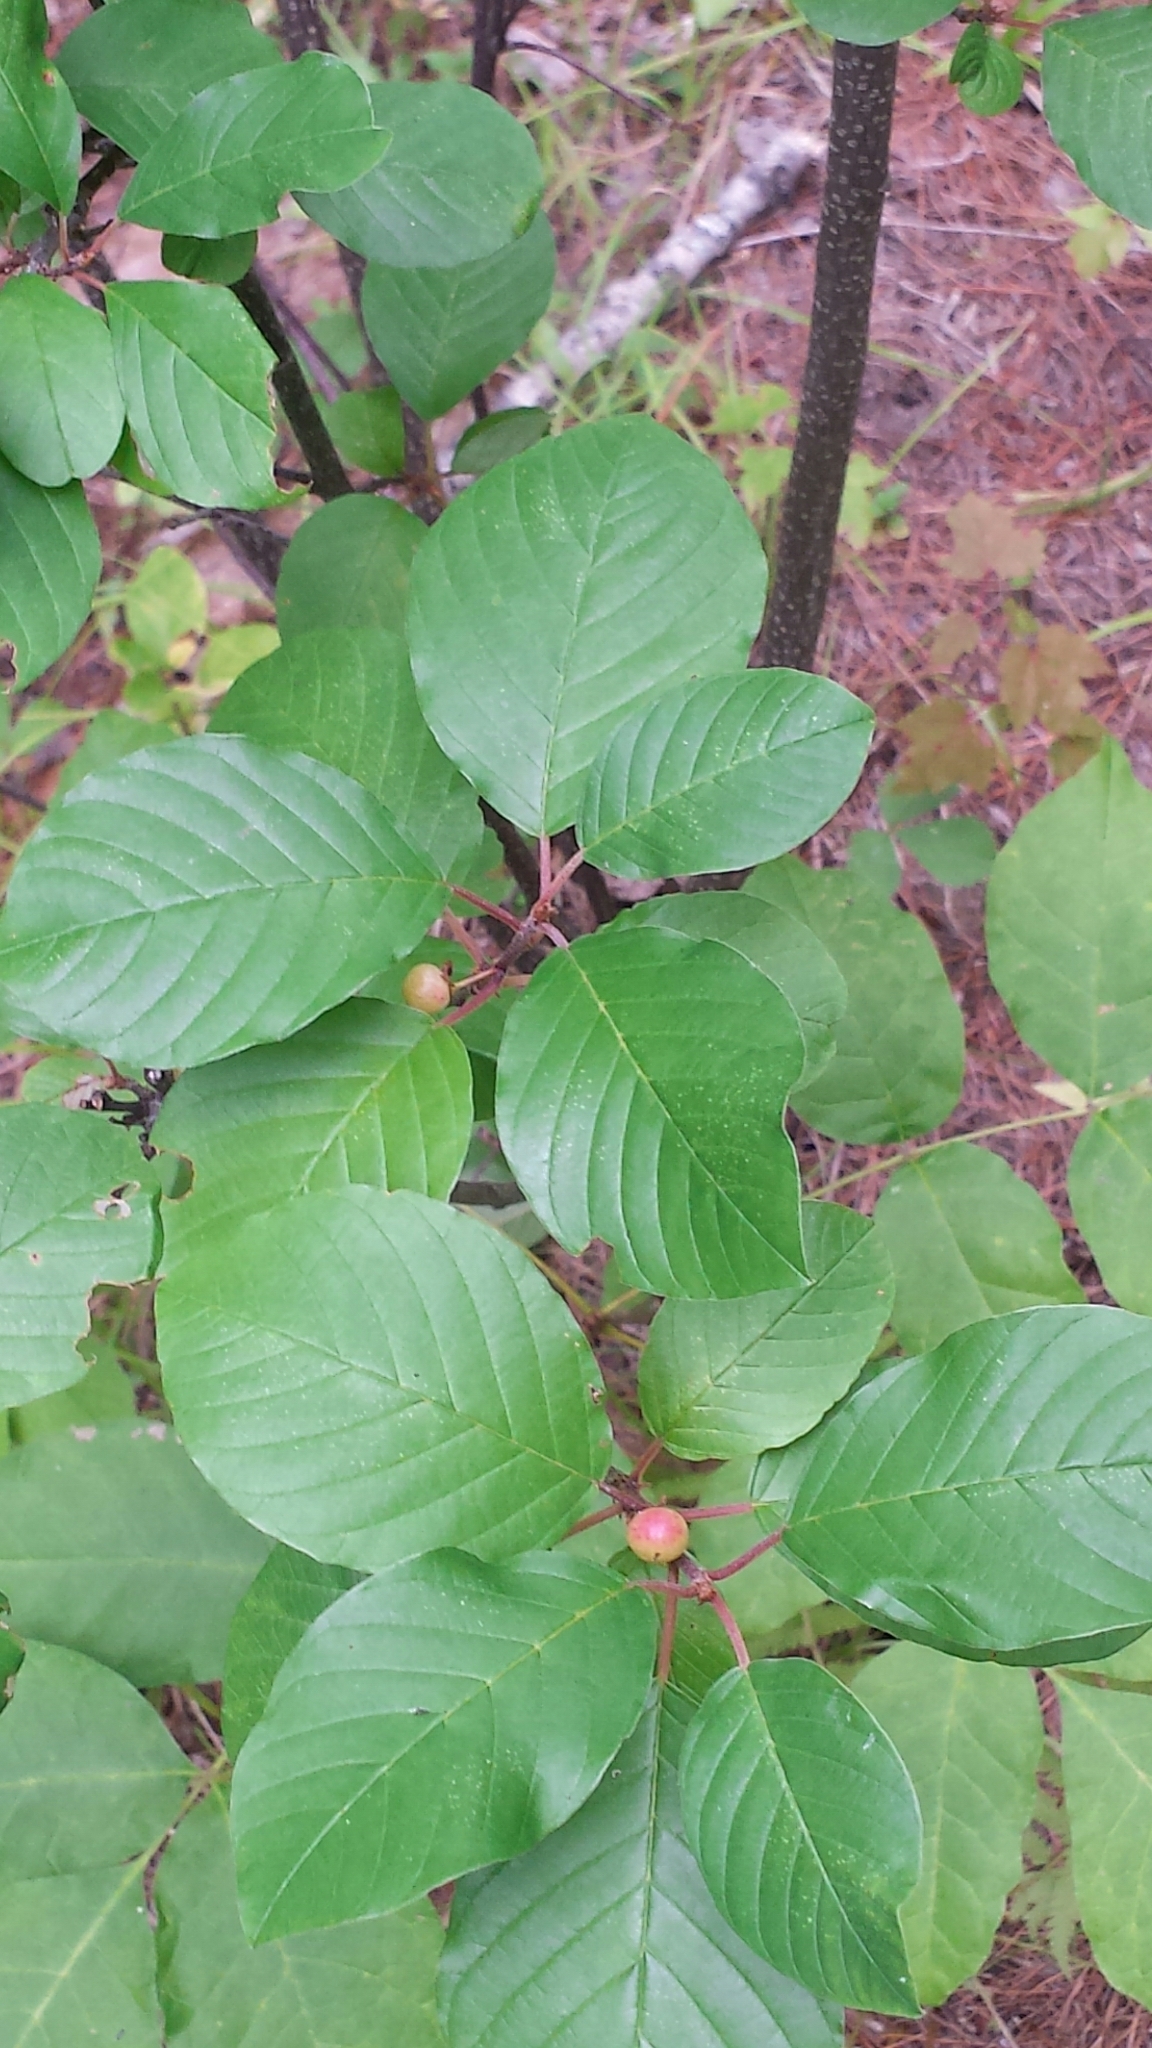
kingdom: Plantae
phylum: Tracheophyta
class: Magnoliopsida
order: Rosales
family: Rhamnaceae
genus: Frangula
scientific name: Frangula alnus
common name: Alder buckthorn
